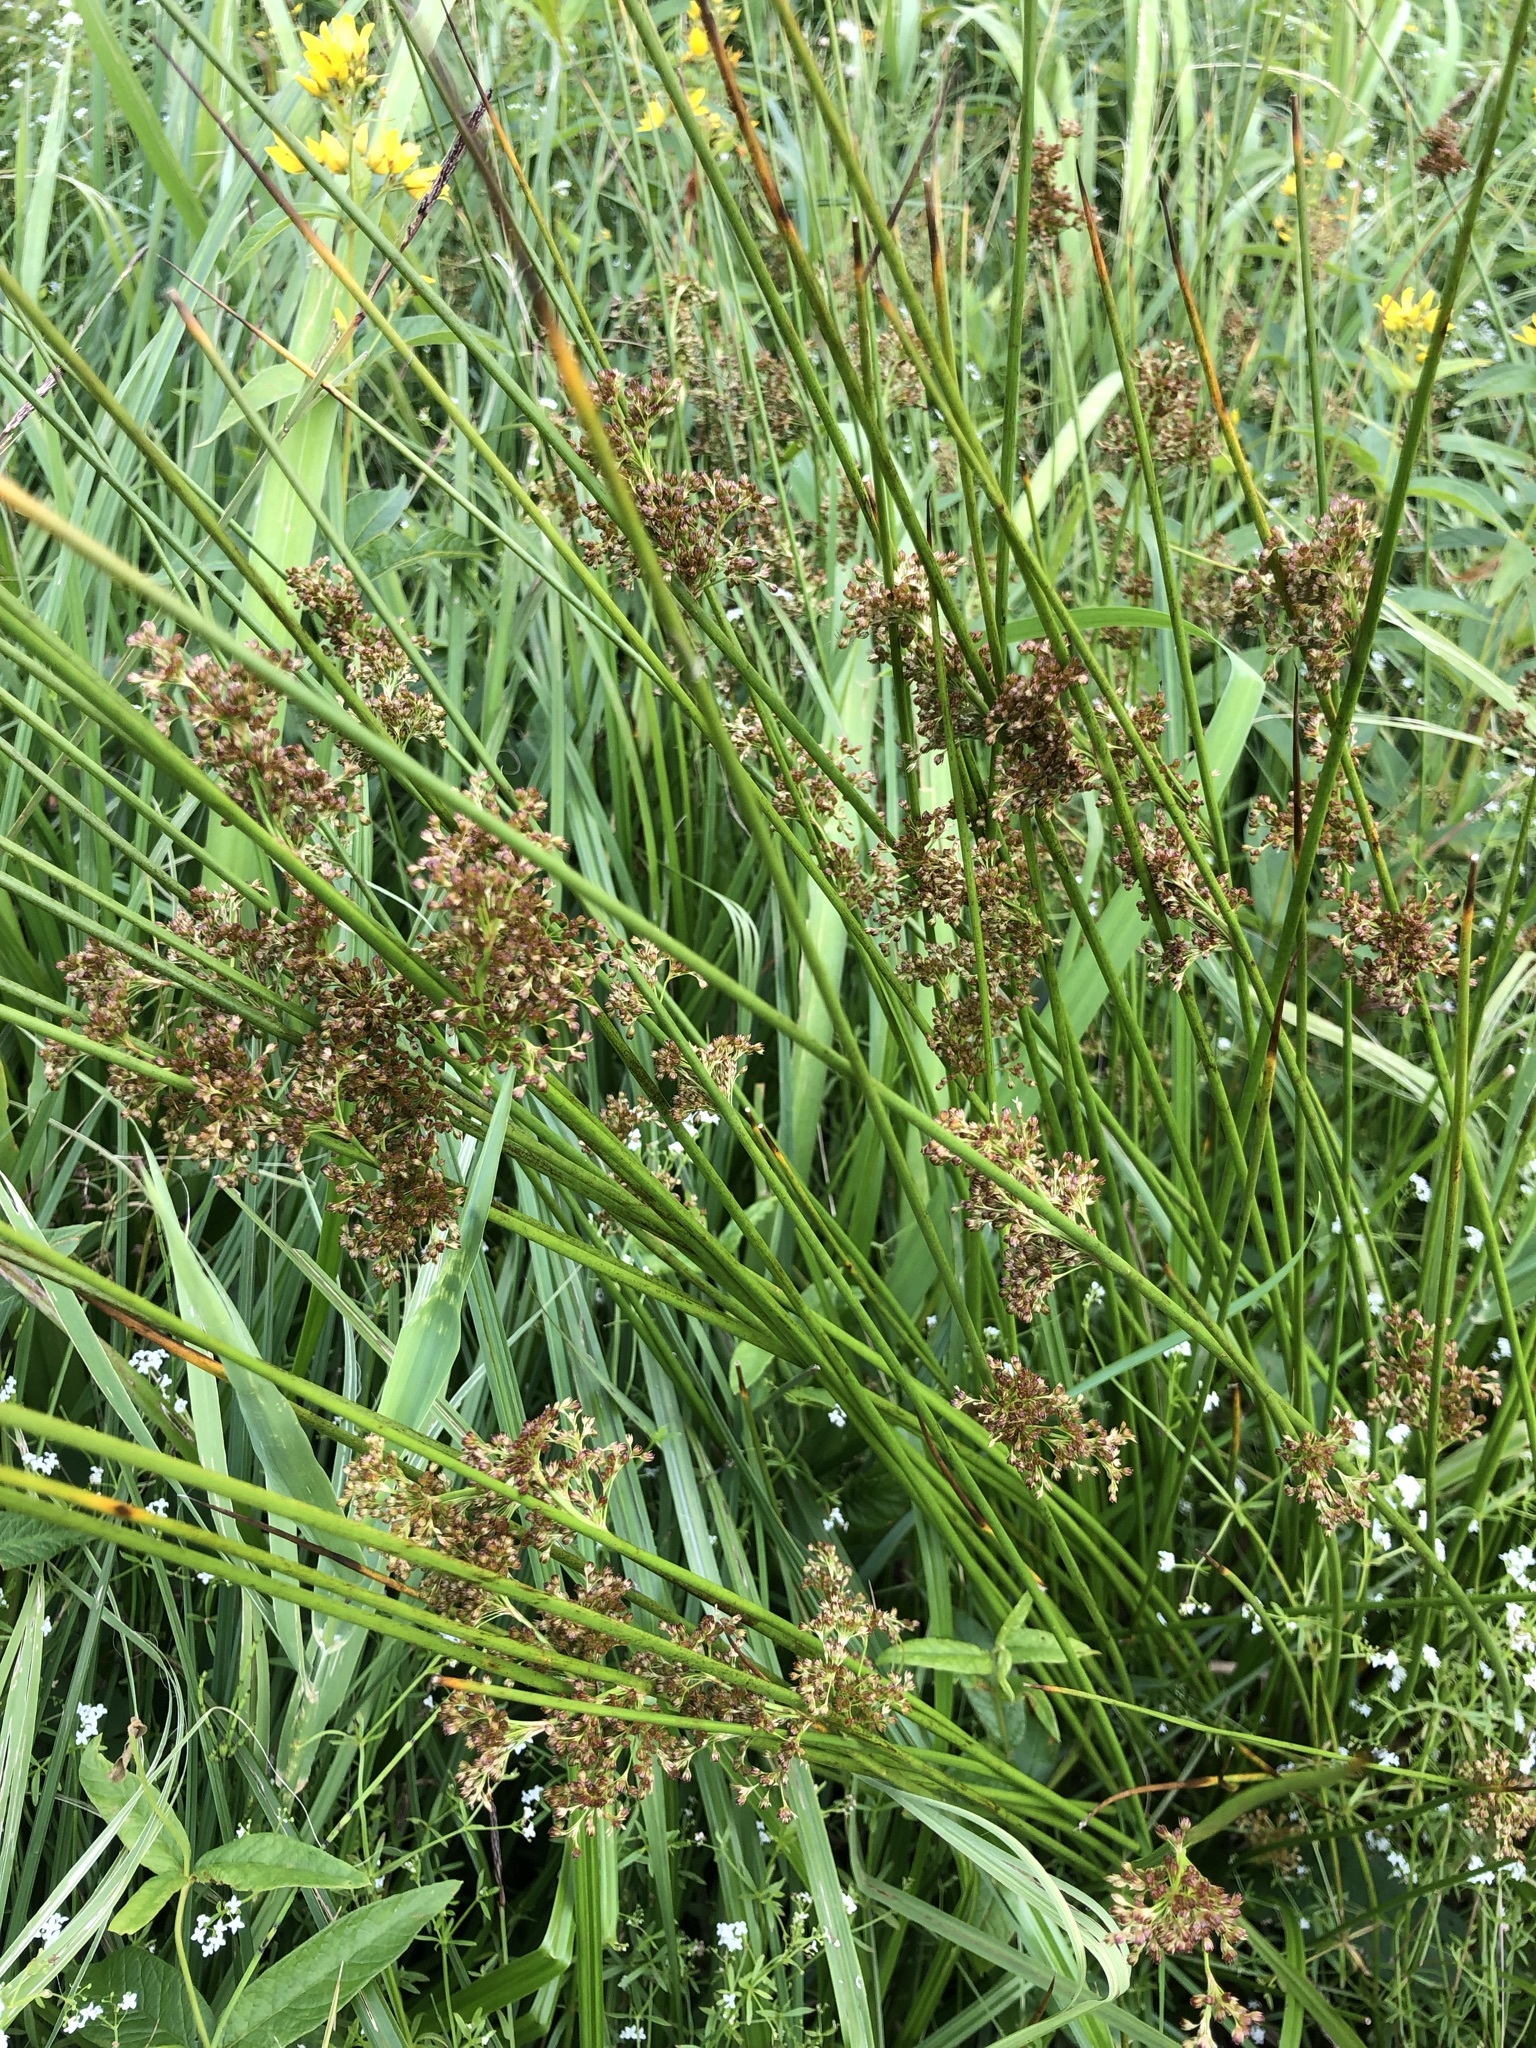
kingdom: Plantae
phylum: Tracheophyta
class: Liliopsida
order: Poales
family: Juncaceae
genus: Juncus
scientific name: Juncus effusus
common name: Soft rush
